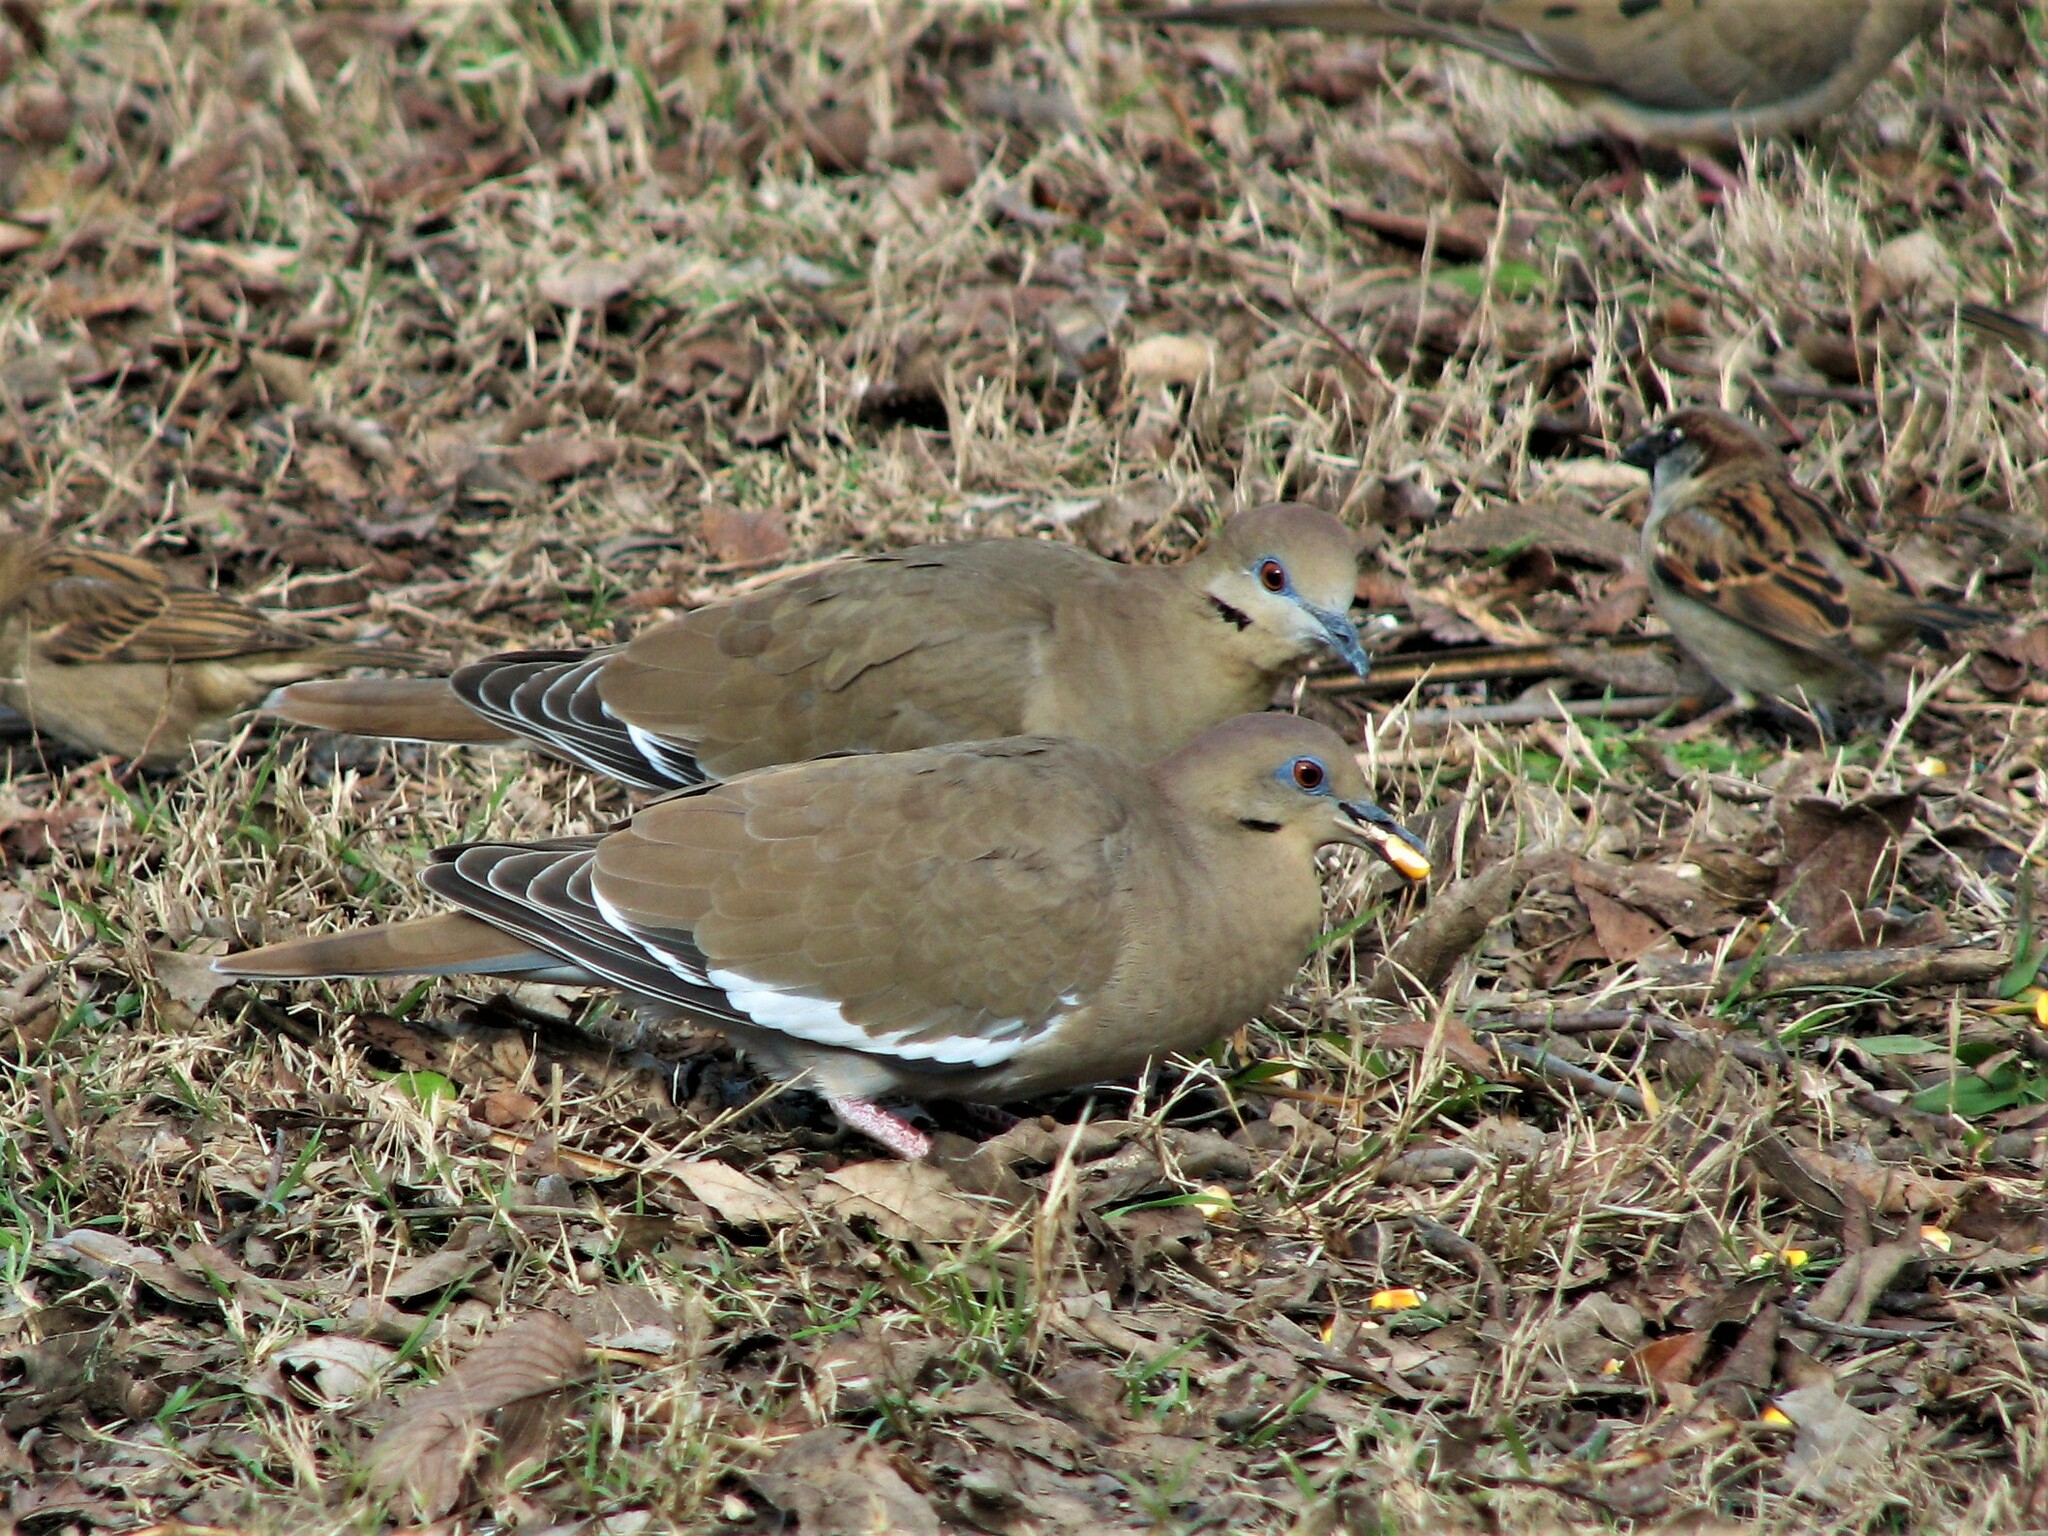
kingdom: Animalia
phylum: Chordata
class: Aves
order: Columbiformes
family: Columbidae
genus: Zenaida
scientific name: Zenaida asiatica
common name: White-winged dove
